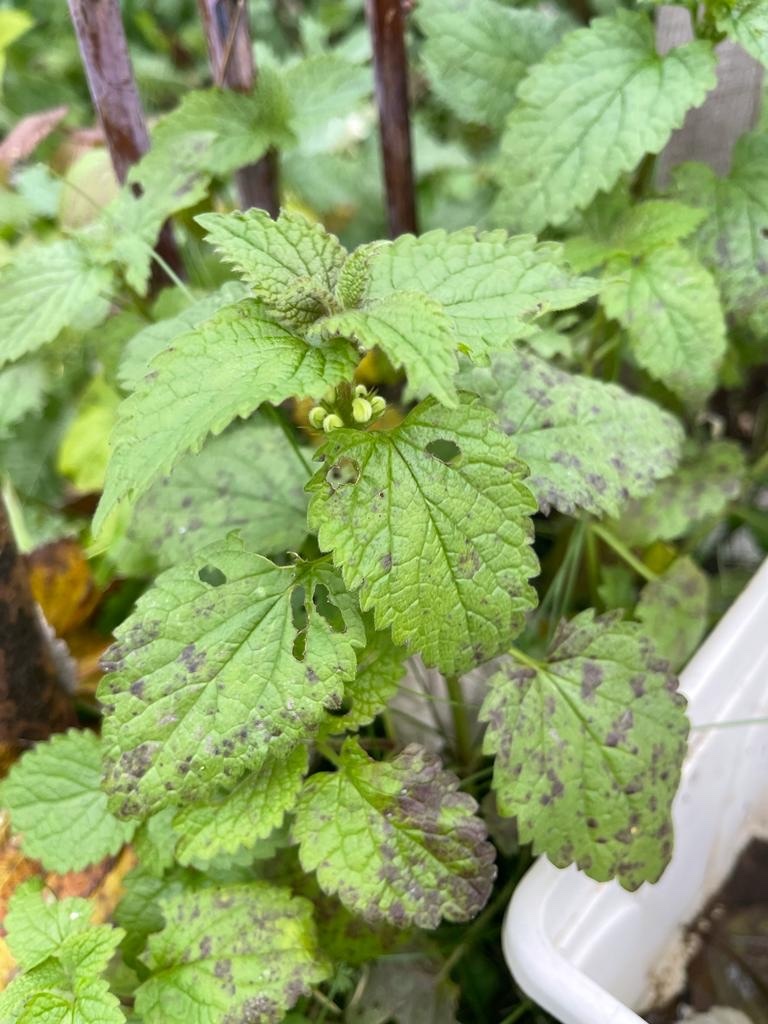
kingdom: Plantae
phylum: Tracheophyta
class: Magnoliopsida
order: Lamiales
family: Lamiaceae
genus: Lamium
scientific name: Lamium album
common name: White dead-nettle
